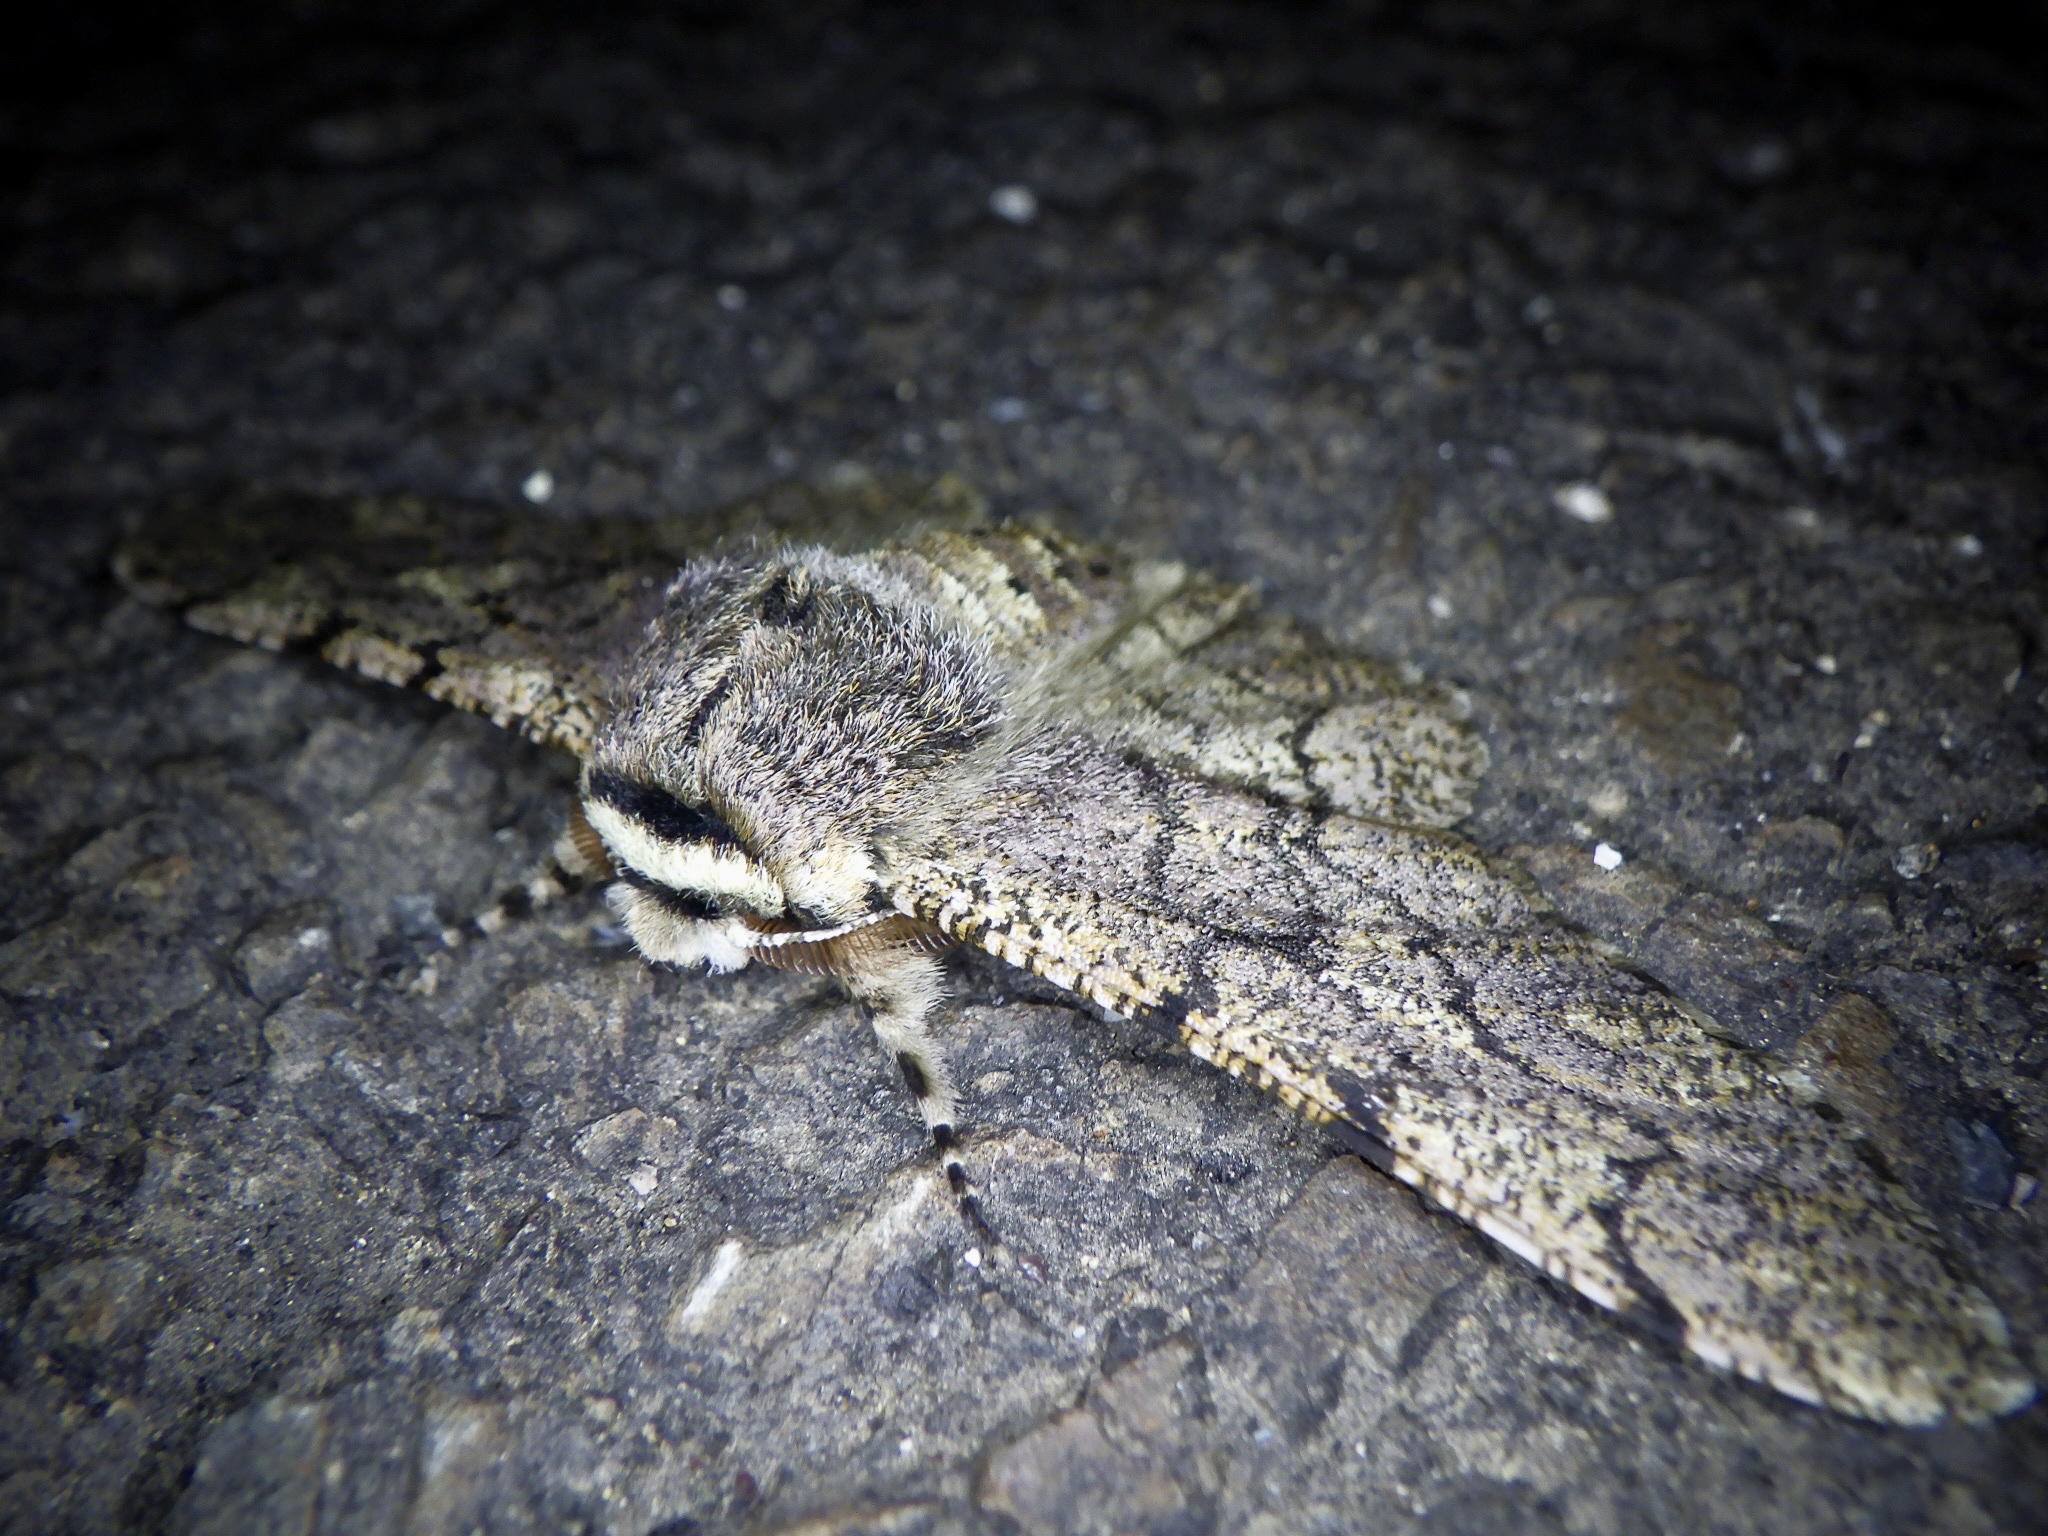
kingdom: Animalia
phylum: Arthropoda
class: Insecta
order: Lepidoptera
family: Geometridae
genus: Biston
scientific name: Biston robustum
